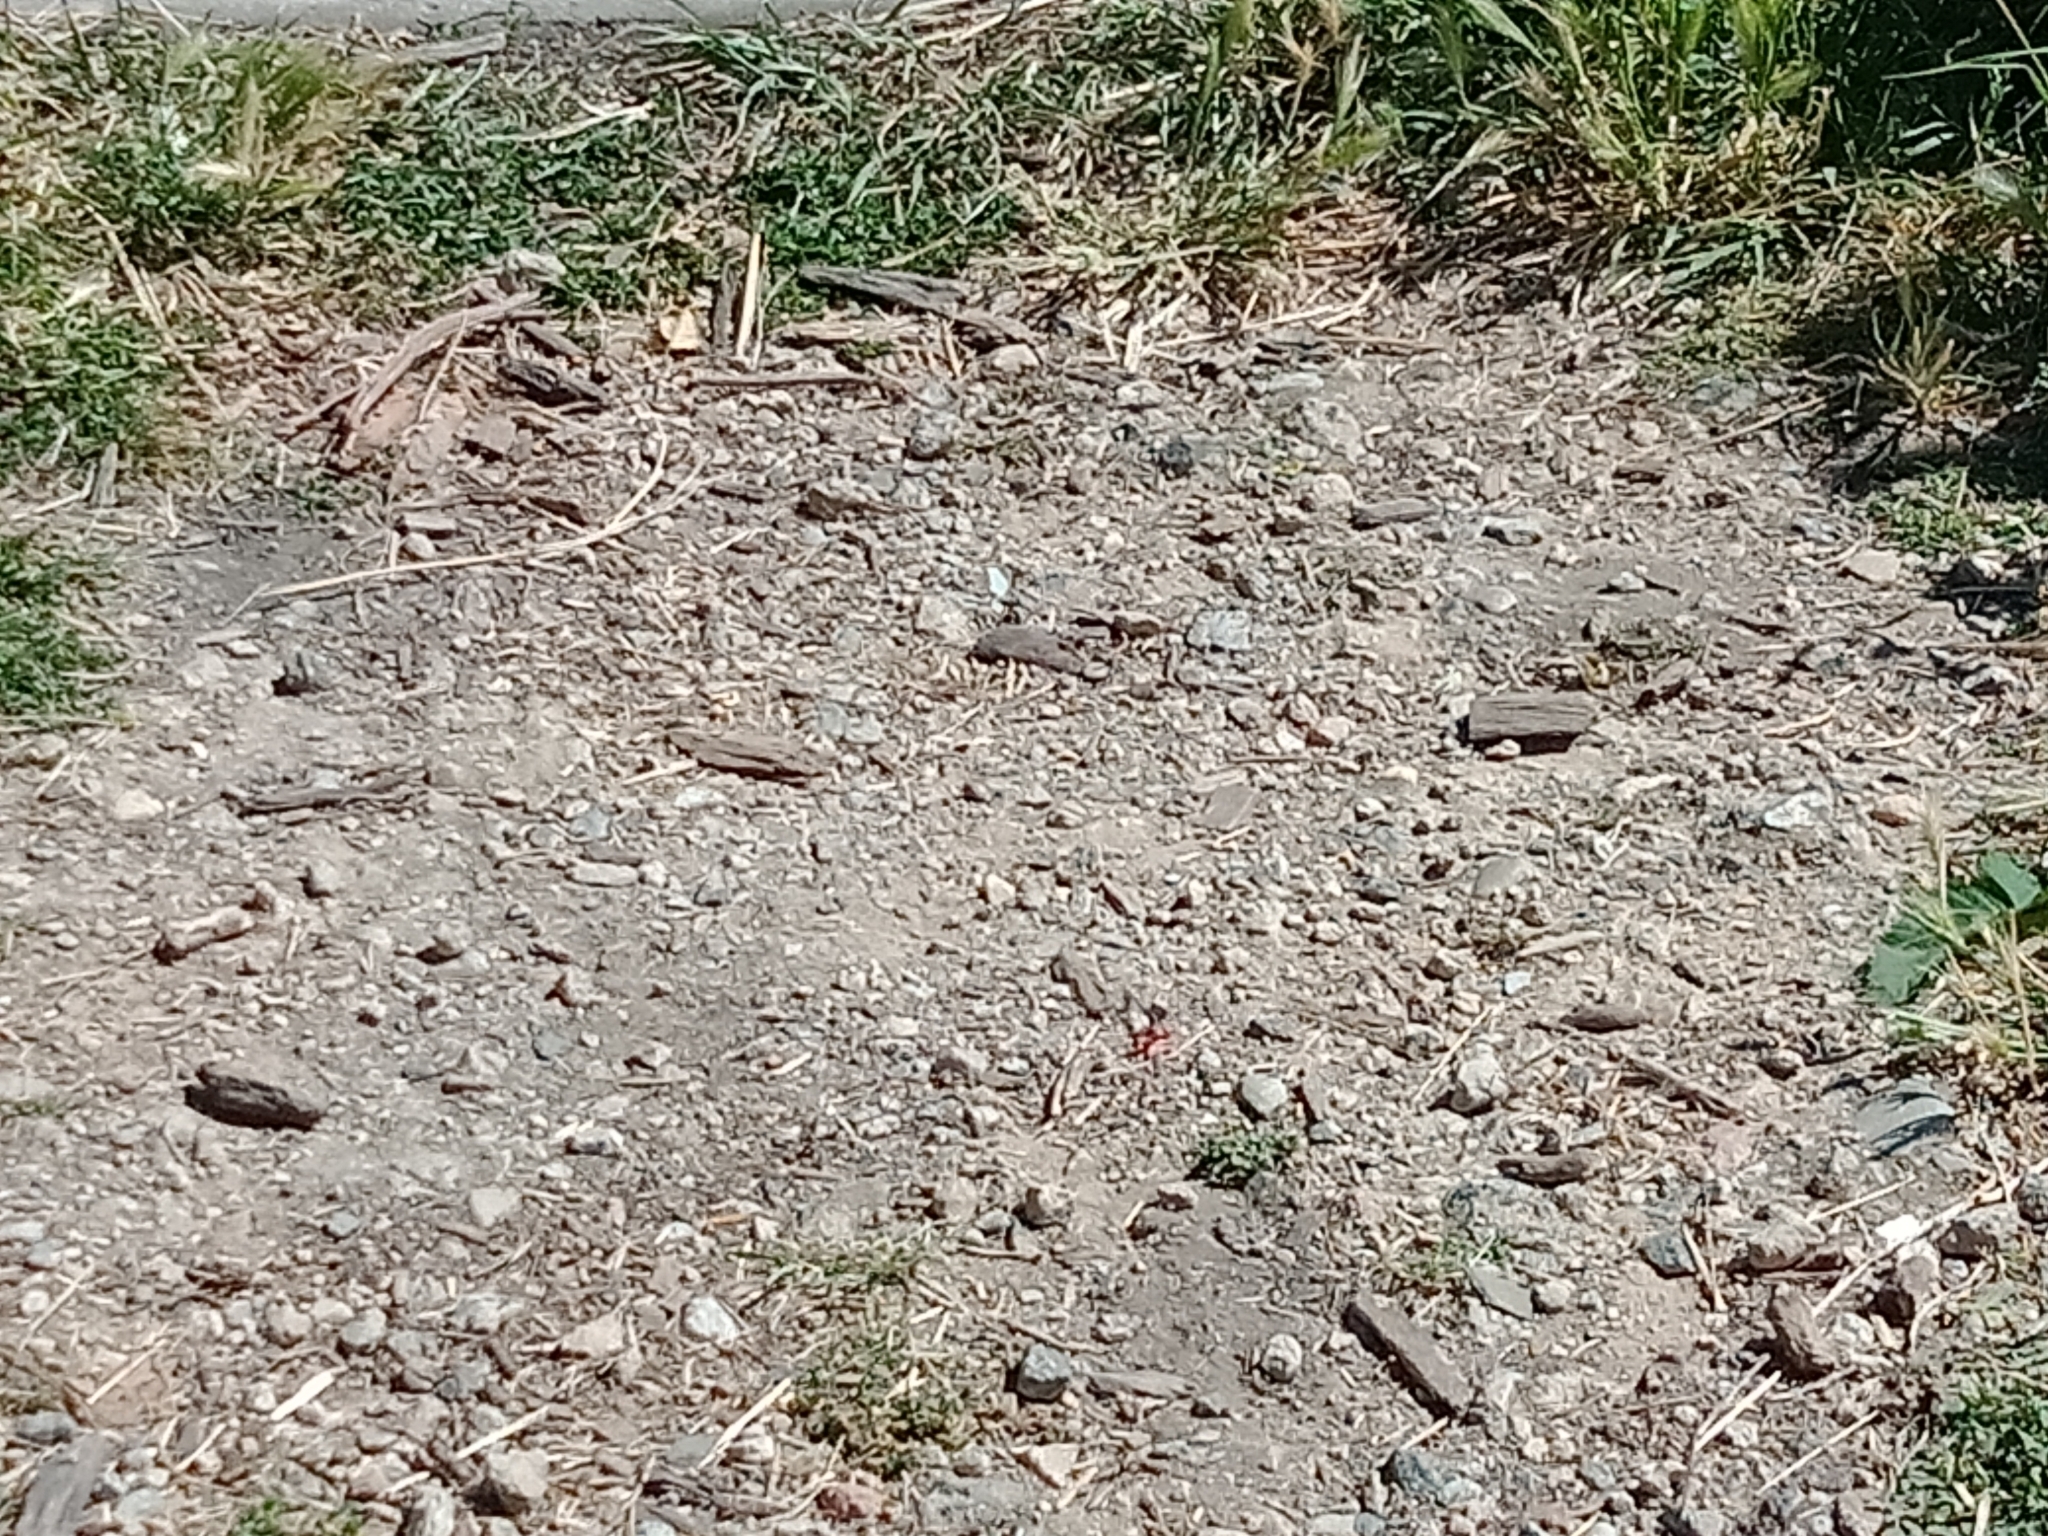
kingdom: Animalia
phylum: Arthropoda
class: Insecta
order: Odonata
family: Coenagrionidae
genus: Ischnura
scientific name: Ischnura heterosticta
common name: Common bluetail
